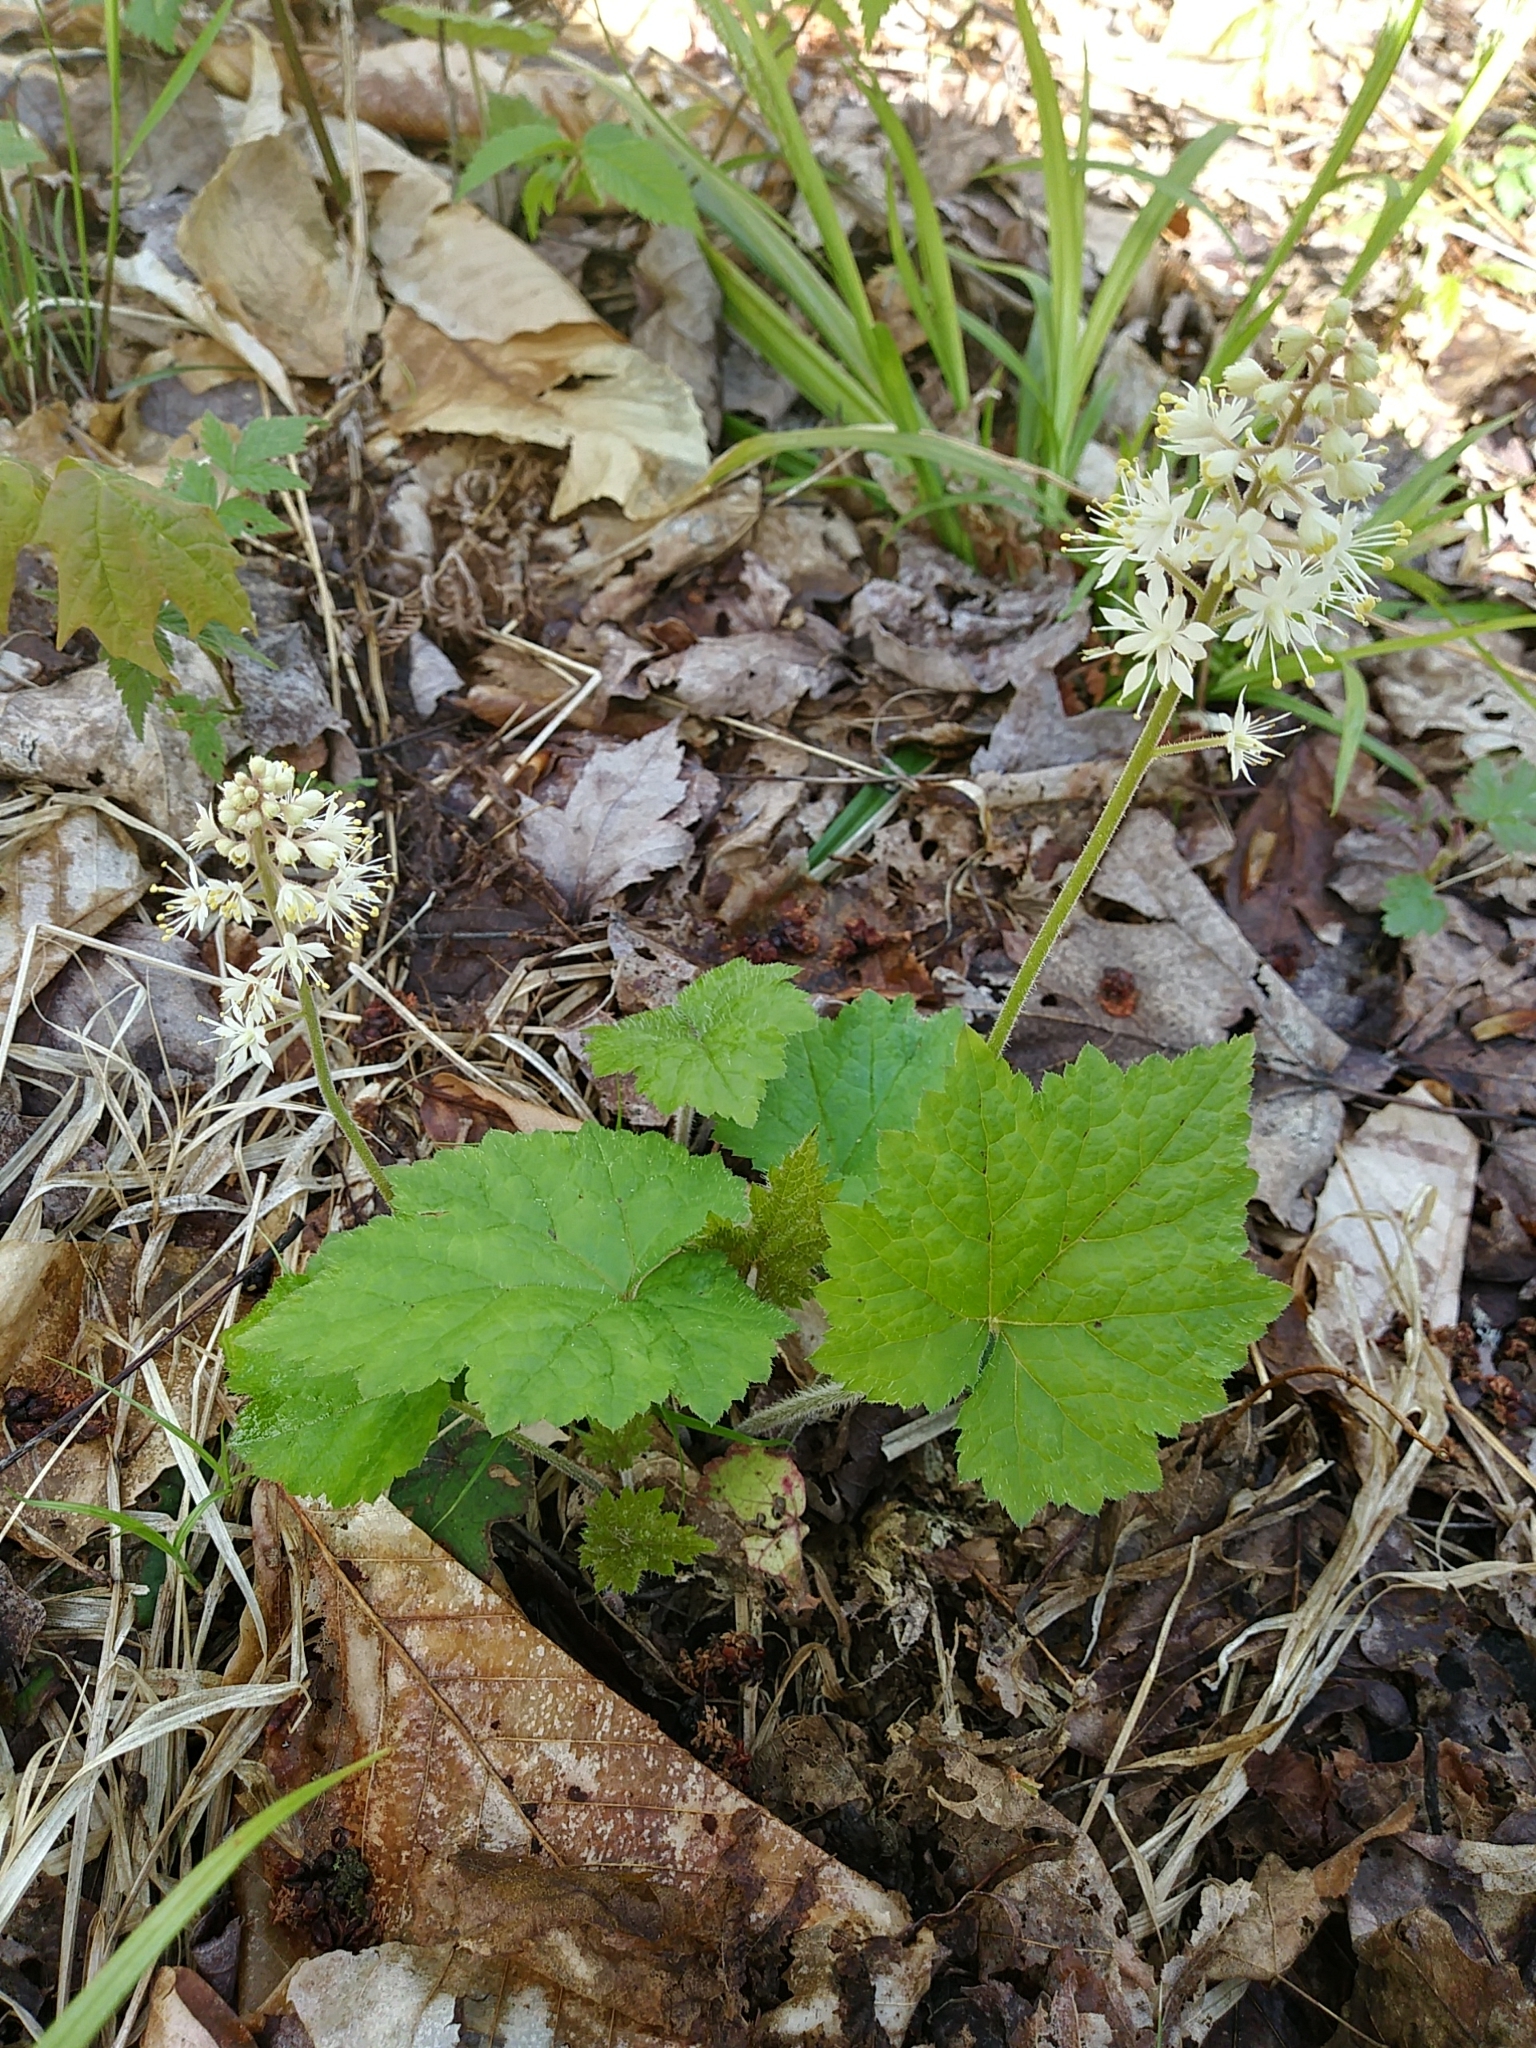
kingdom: Plantae
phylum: Tracheophyta
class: Magnoliopsida
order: Saxifragales
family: Saxifragaceae
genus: Tiarella
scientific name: Tiarella stolonifera
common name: Stoloniferous foamflower
